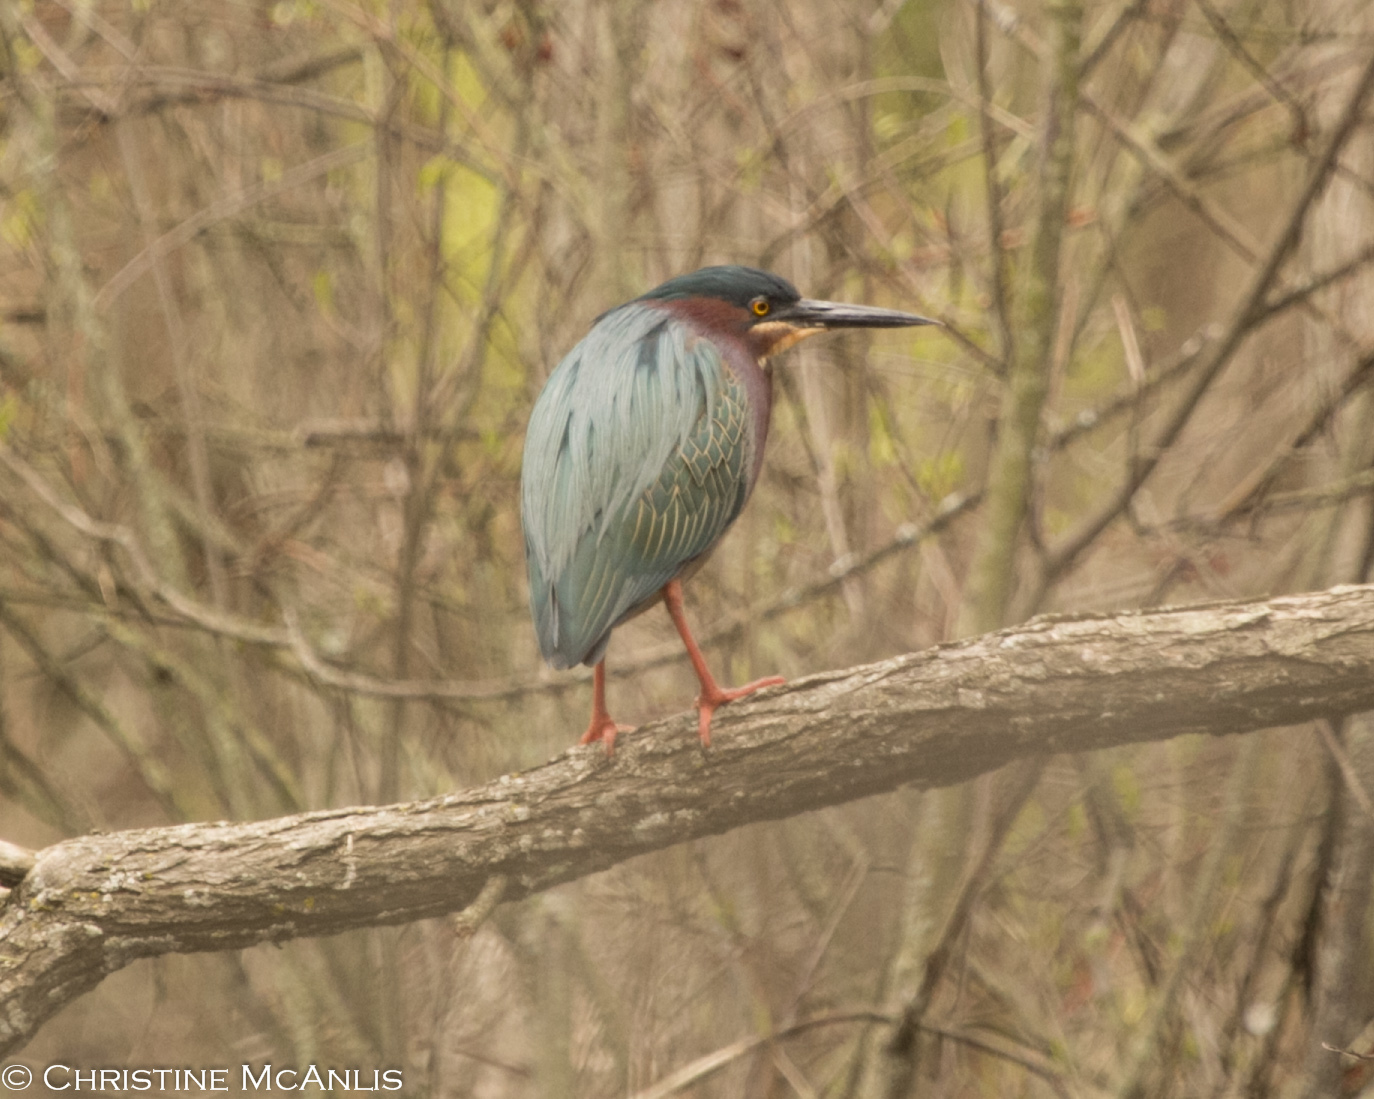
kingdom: Animalia
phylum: Chordata
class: Aves
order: Pelecaniformes
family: Ardeidae
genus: Butorides
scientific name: Butorides virescens
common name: Green heron
